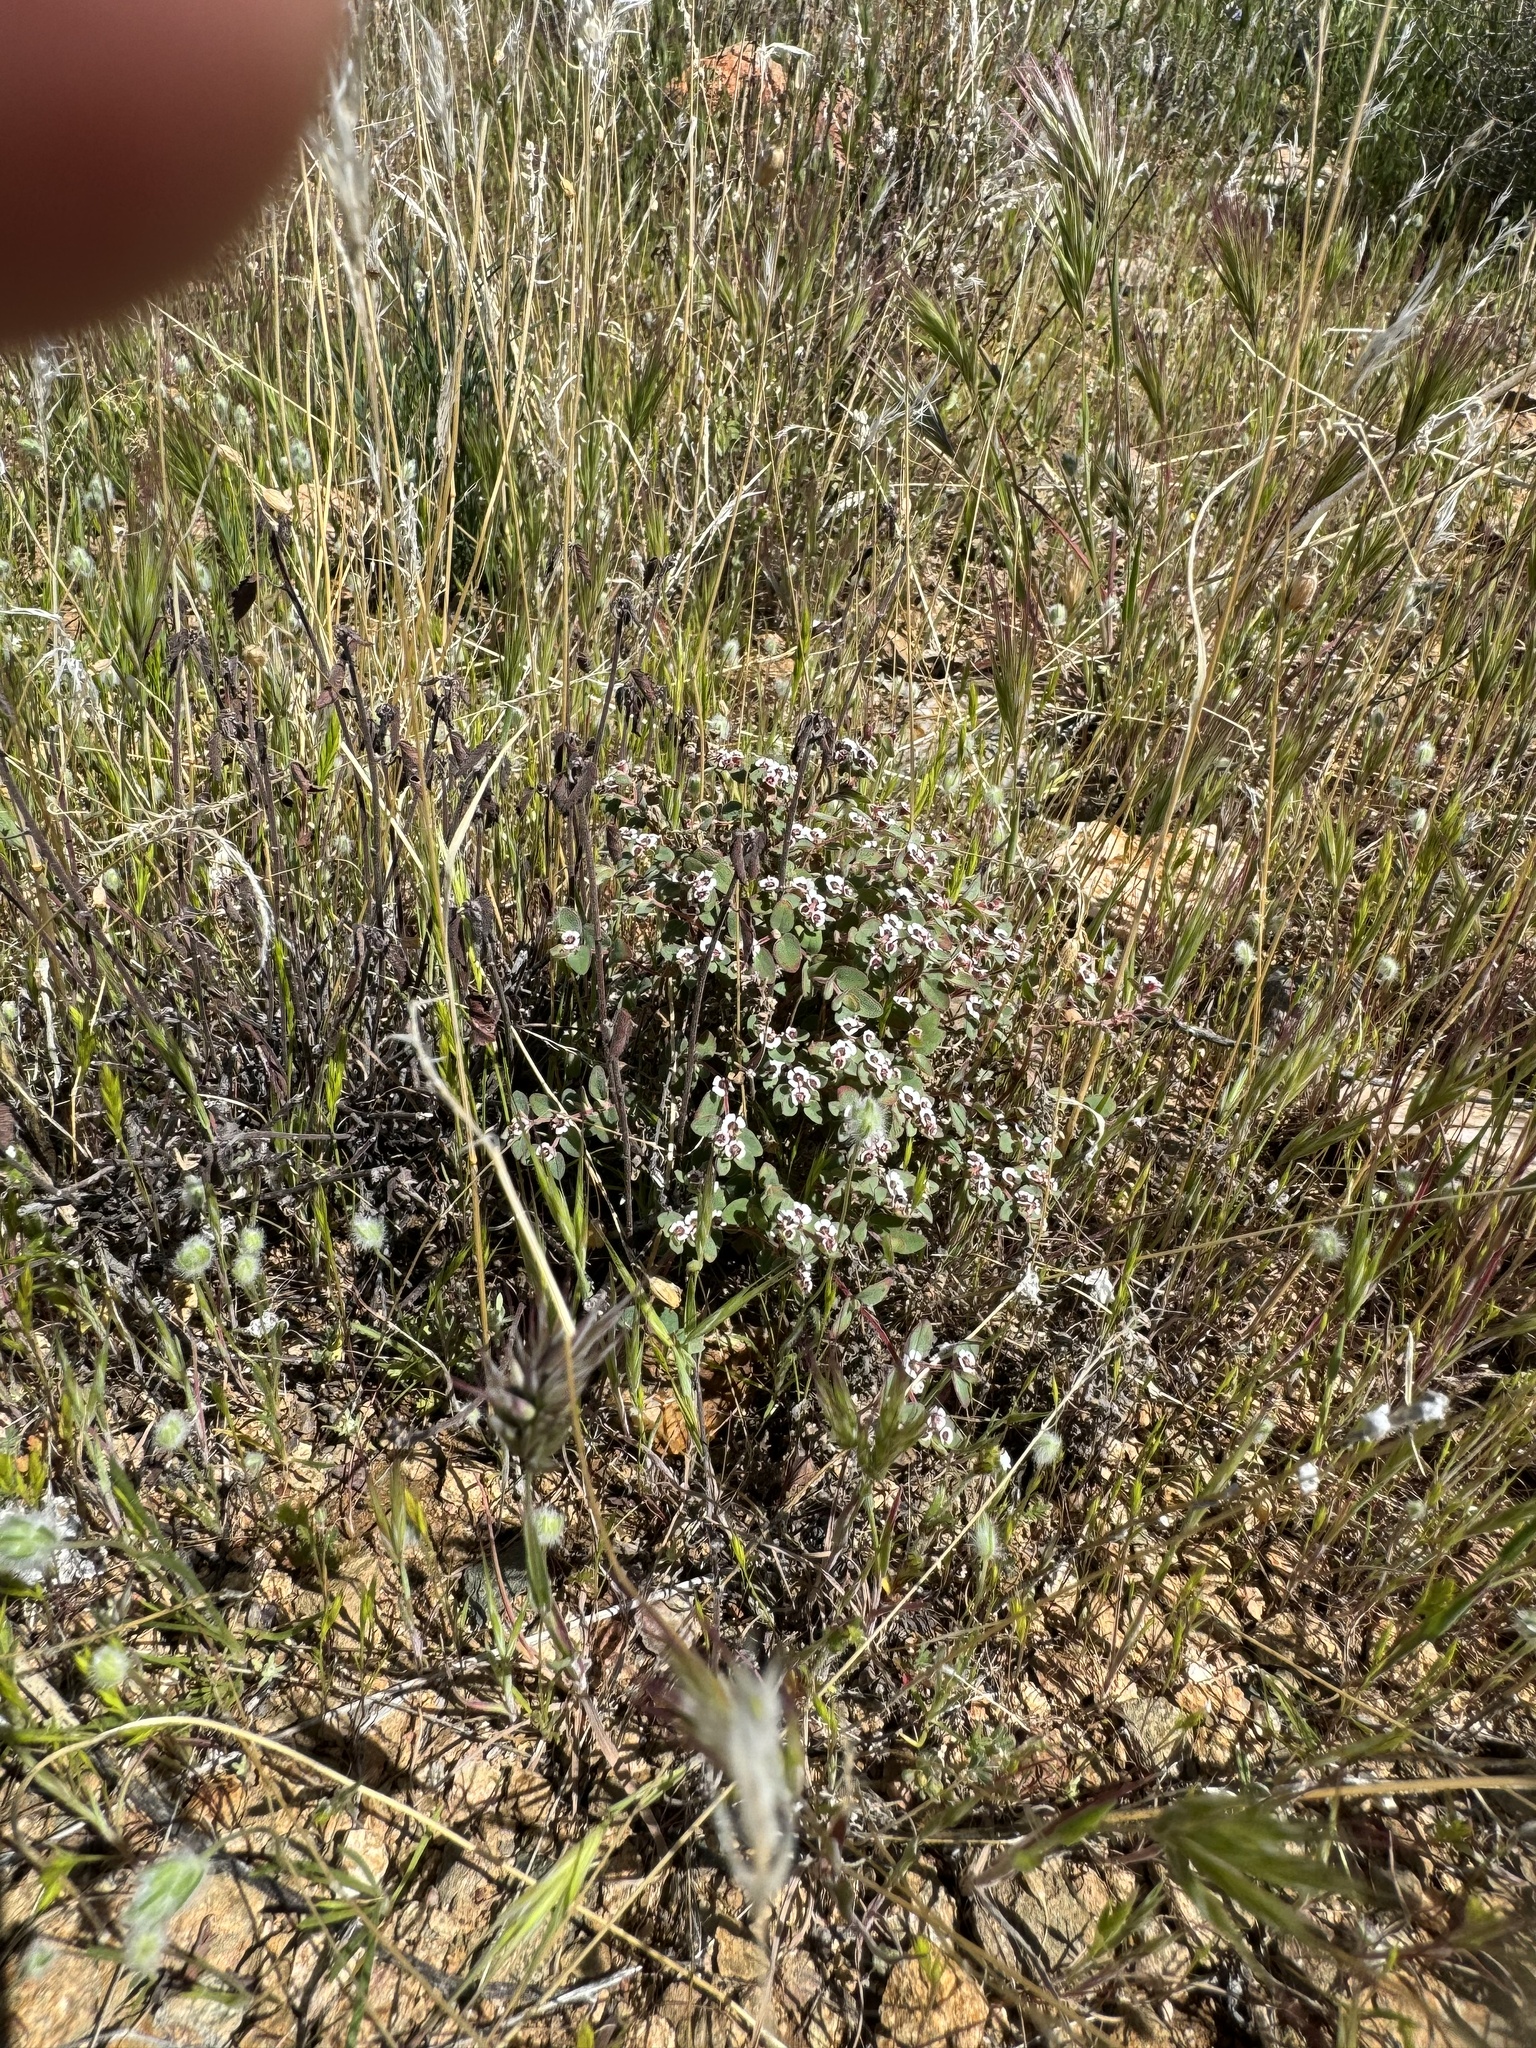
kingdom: Plantae
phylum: Tracheophyta
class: Magnoliopsida
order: Malpighiales
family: Euphorbiaceae
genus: Euphorbia
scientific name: Euphorbia melanadenia
